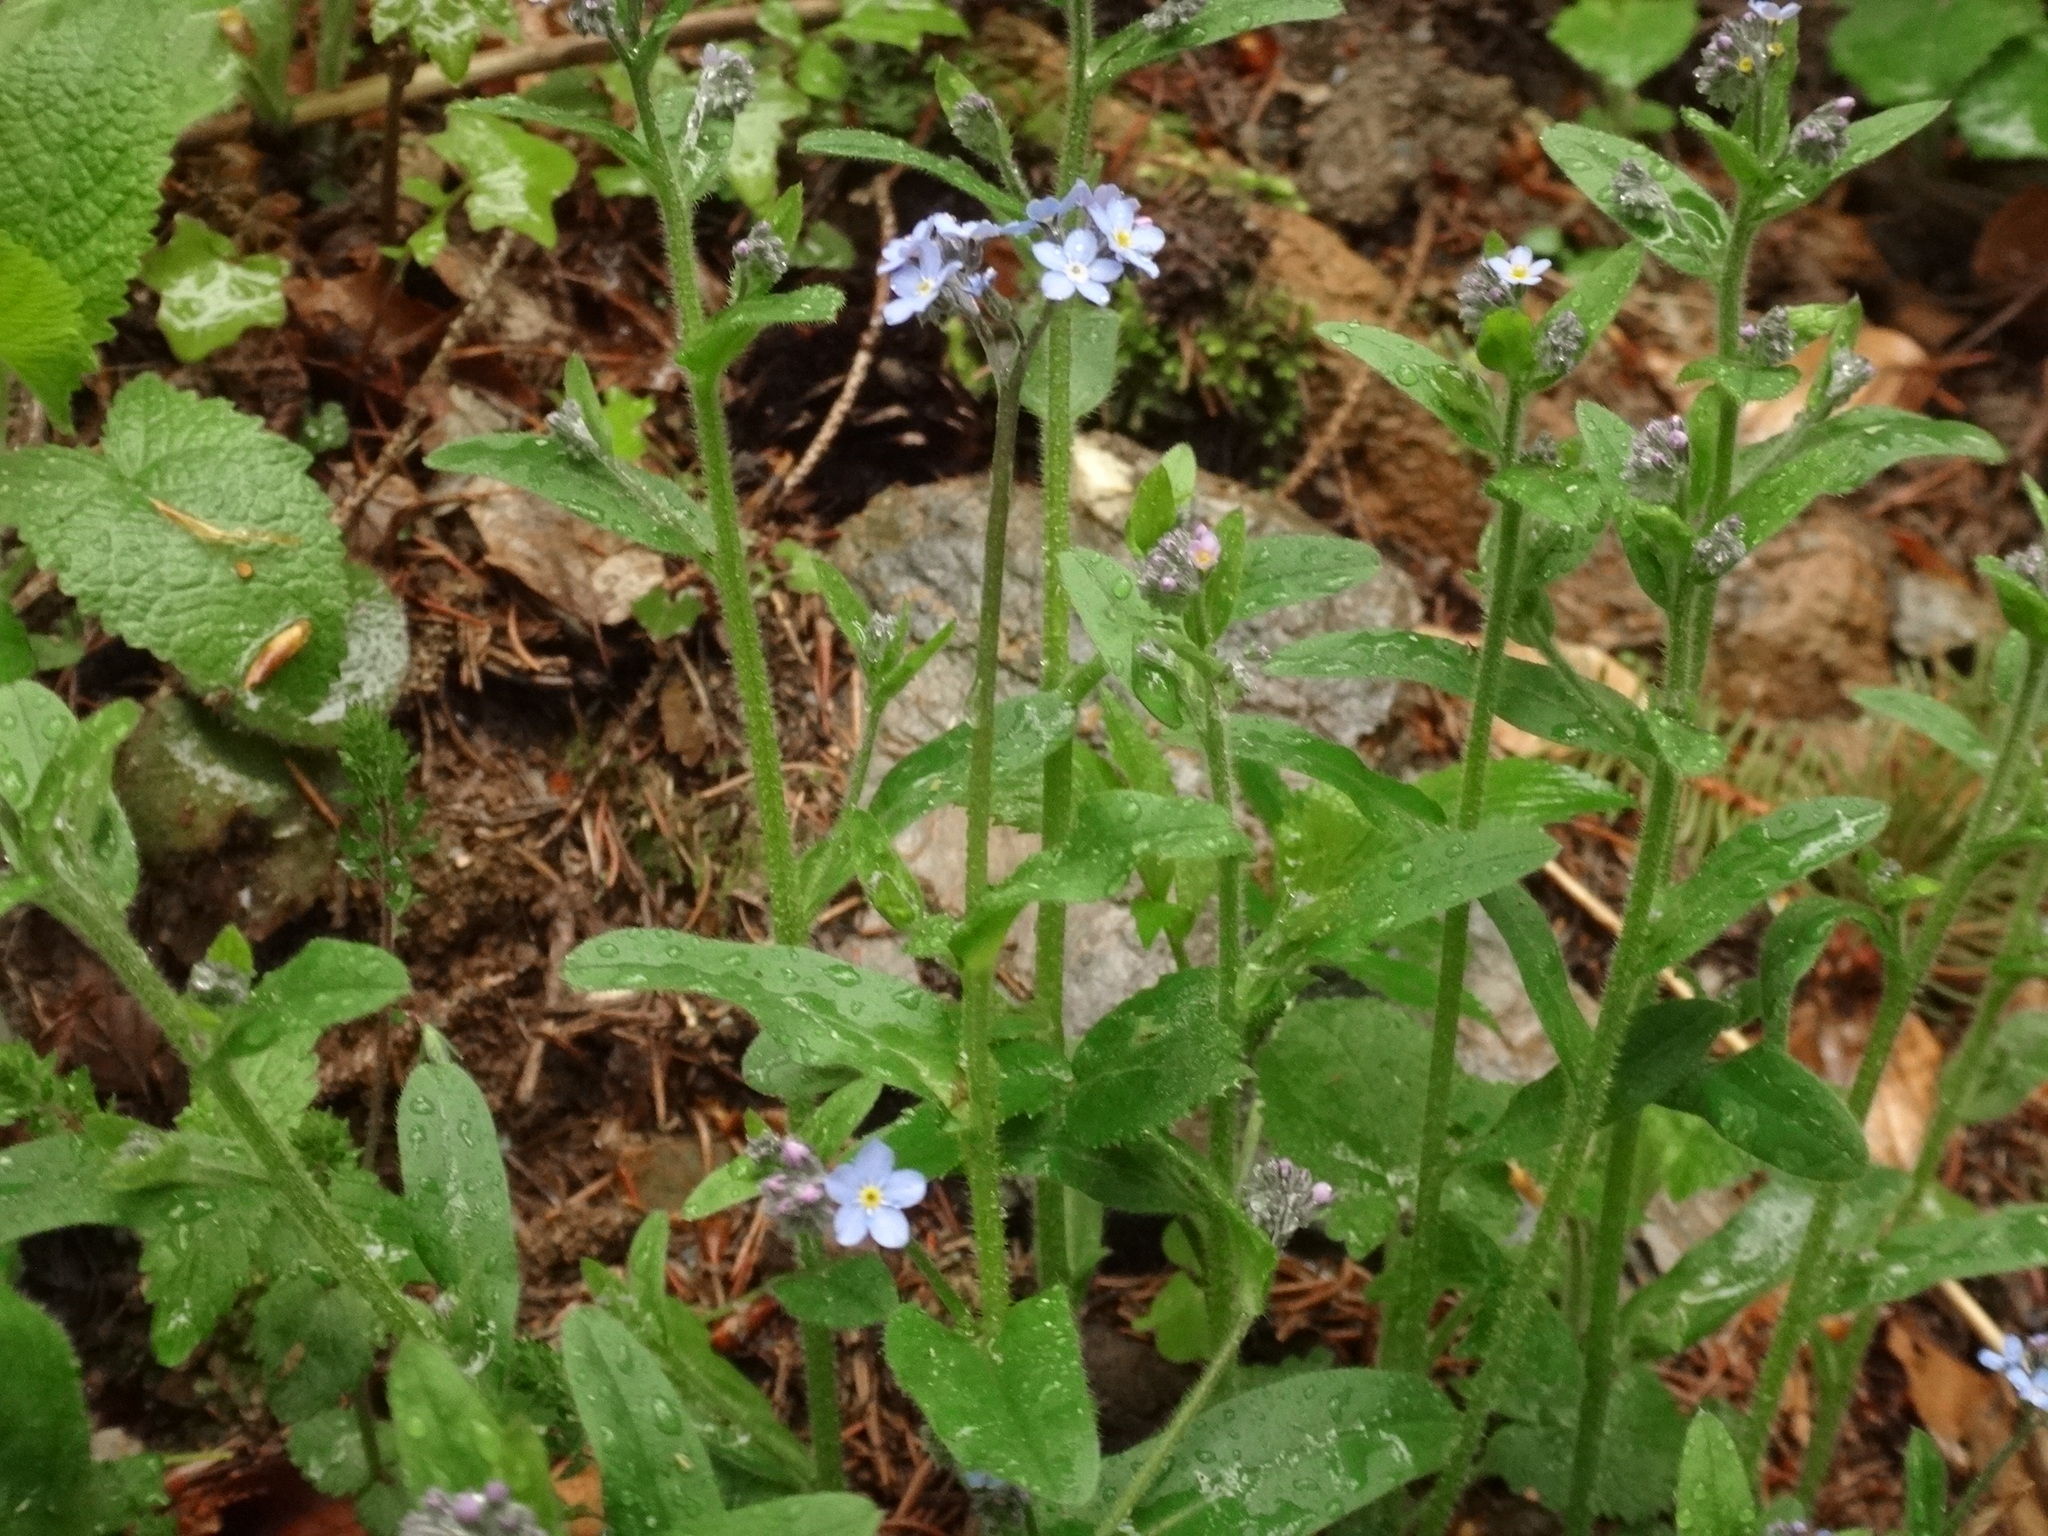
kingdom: Plantae
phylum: Tracheophyta
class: Magnoliopsida
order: Boraginales
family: Boraginaceae
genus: Myosotis
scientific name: Myosotis sylvatica
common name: Wood forget-me-not
